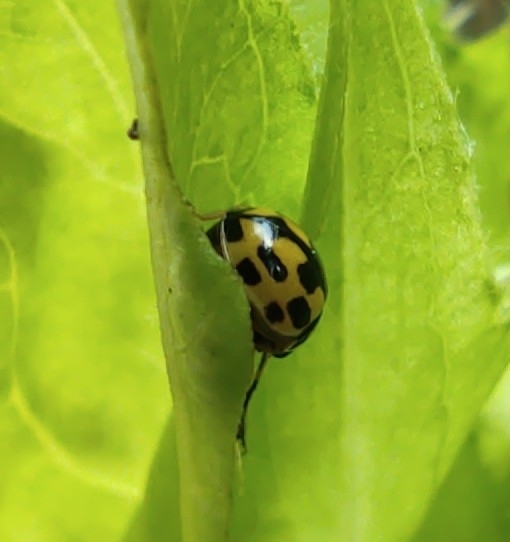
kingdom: Animalia
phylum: Arthropoda
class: Insecta
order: Coleoptera
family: Coccinellidae
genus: Propylaea
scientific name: Propylaea quatuordecimpunctata
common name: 14-spotted ladybird beetle
